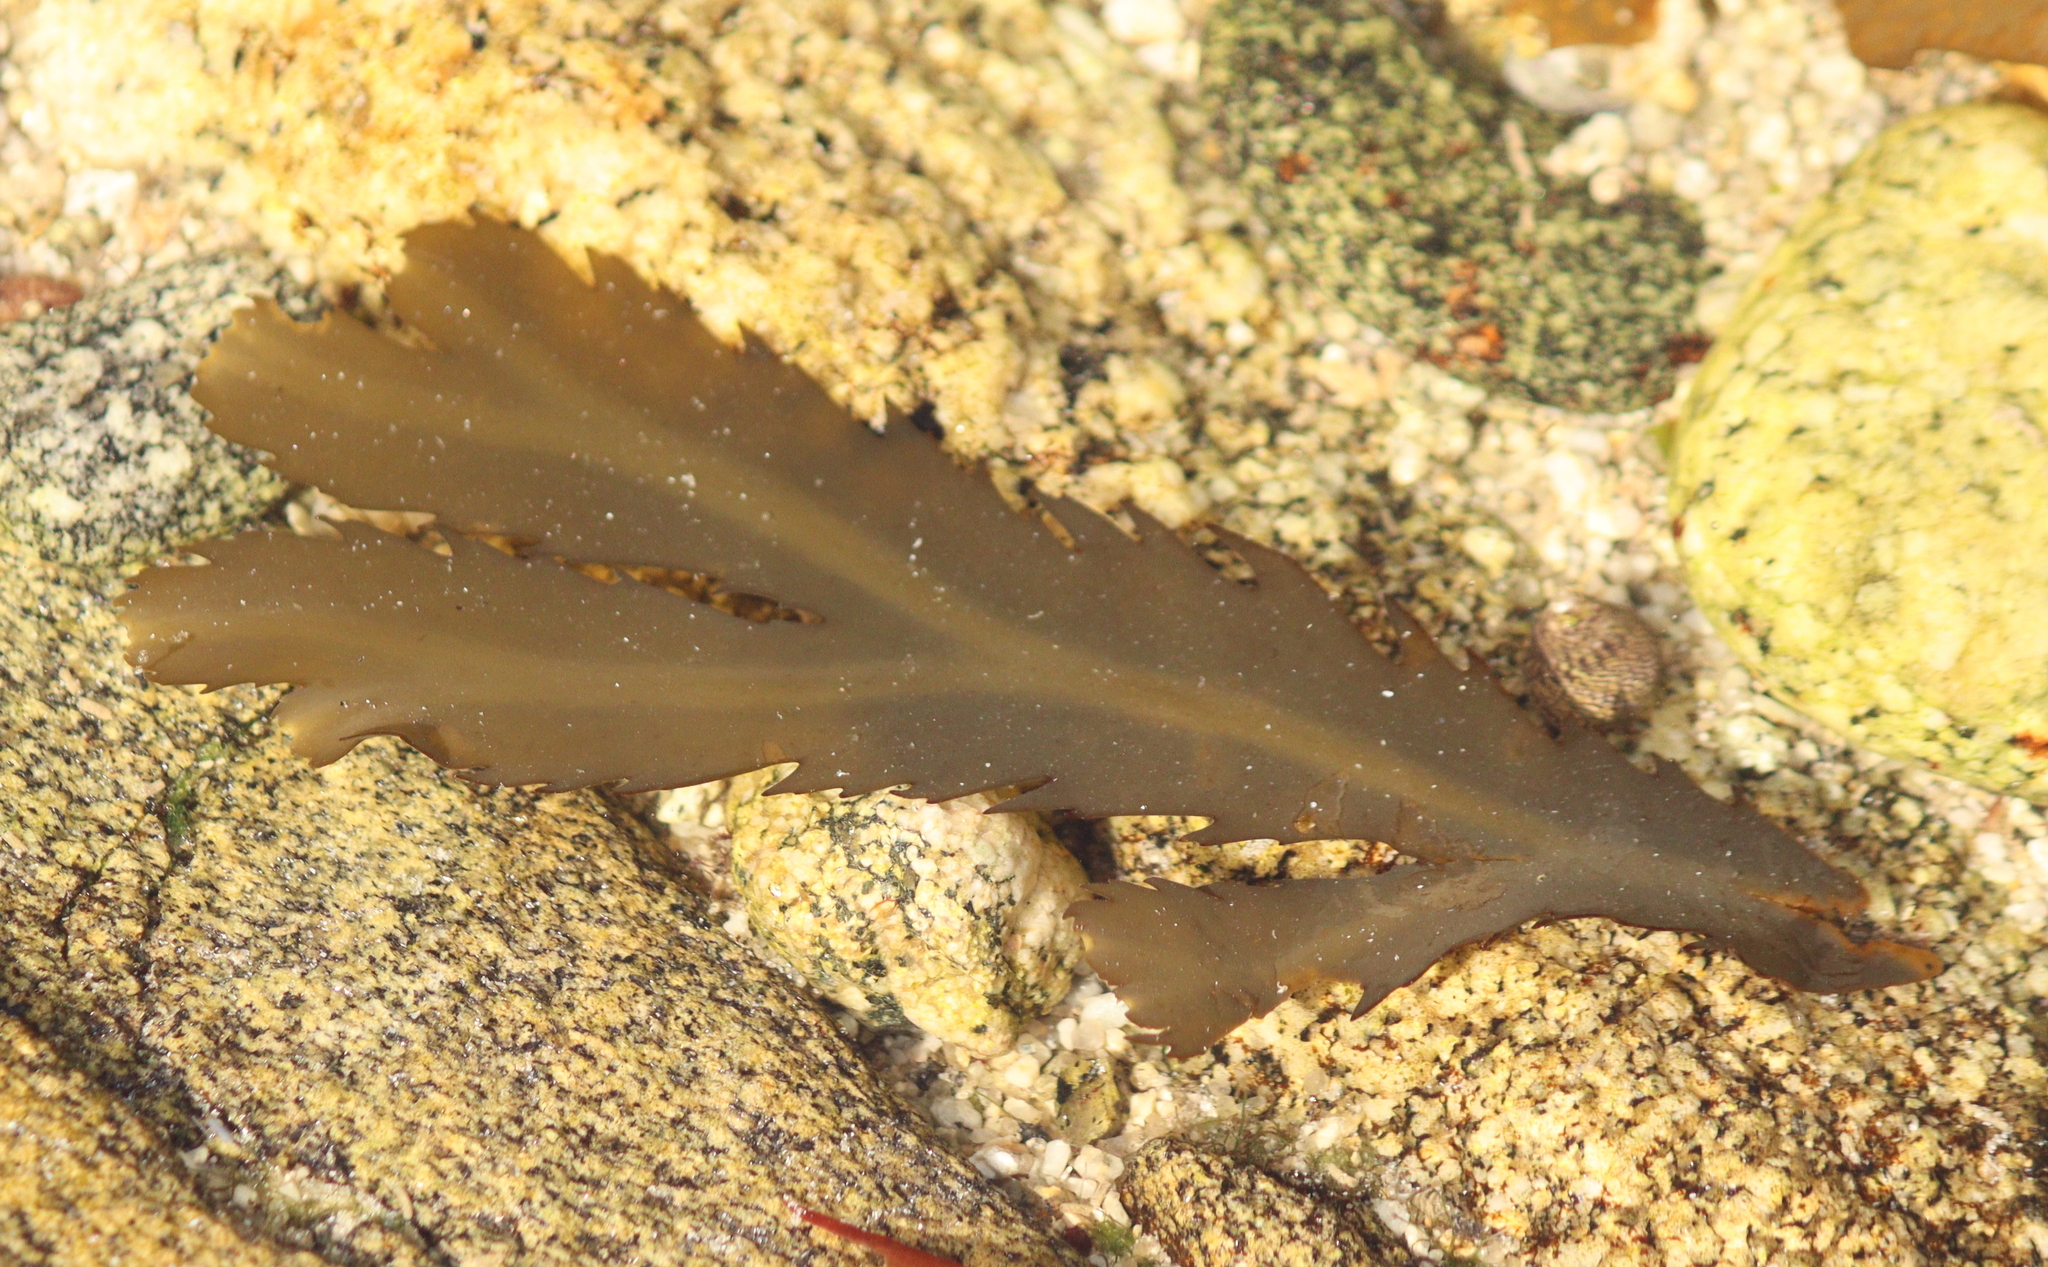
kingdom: Chromista
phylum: Ochrophyta
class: Phaeophyceae
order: Fucales
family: Fucaceae
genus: Fucus
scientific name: Fucus serratus
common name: Toothed wrack
